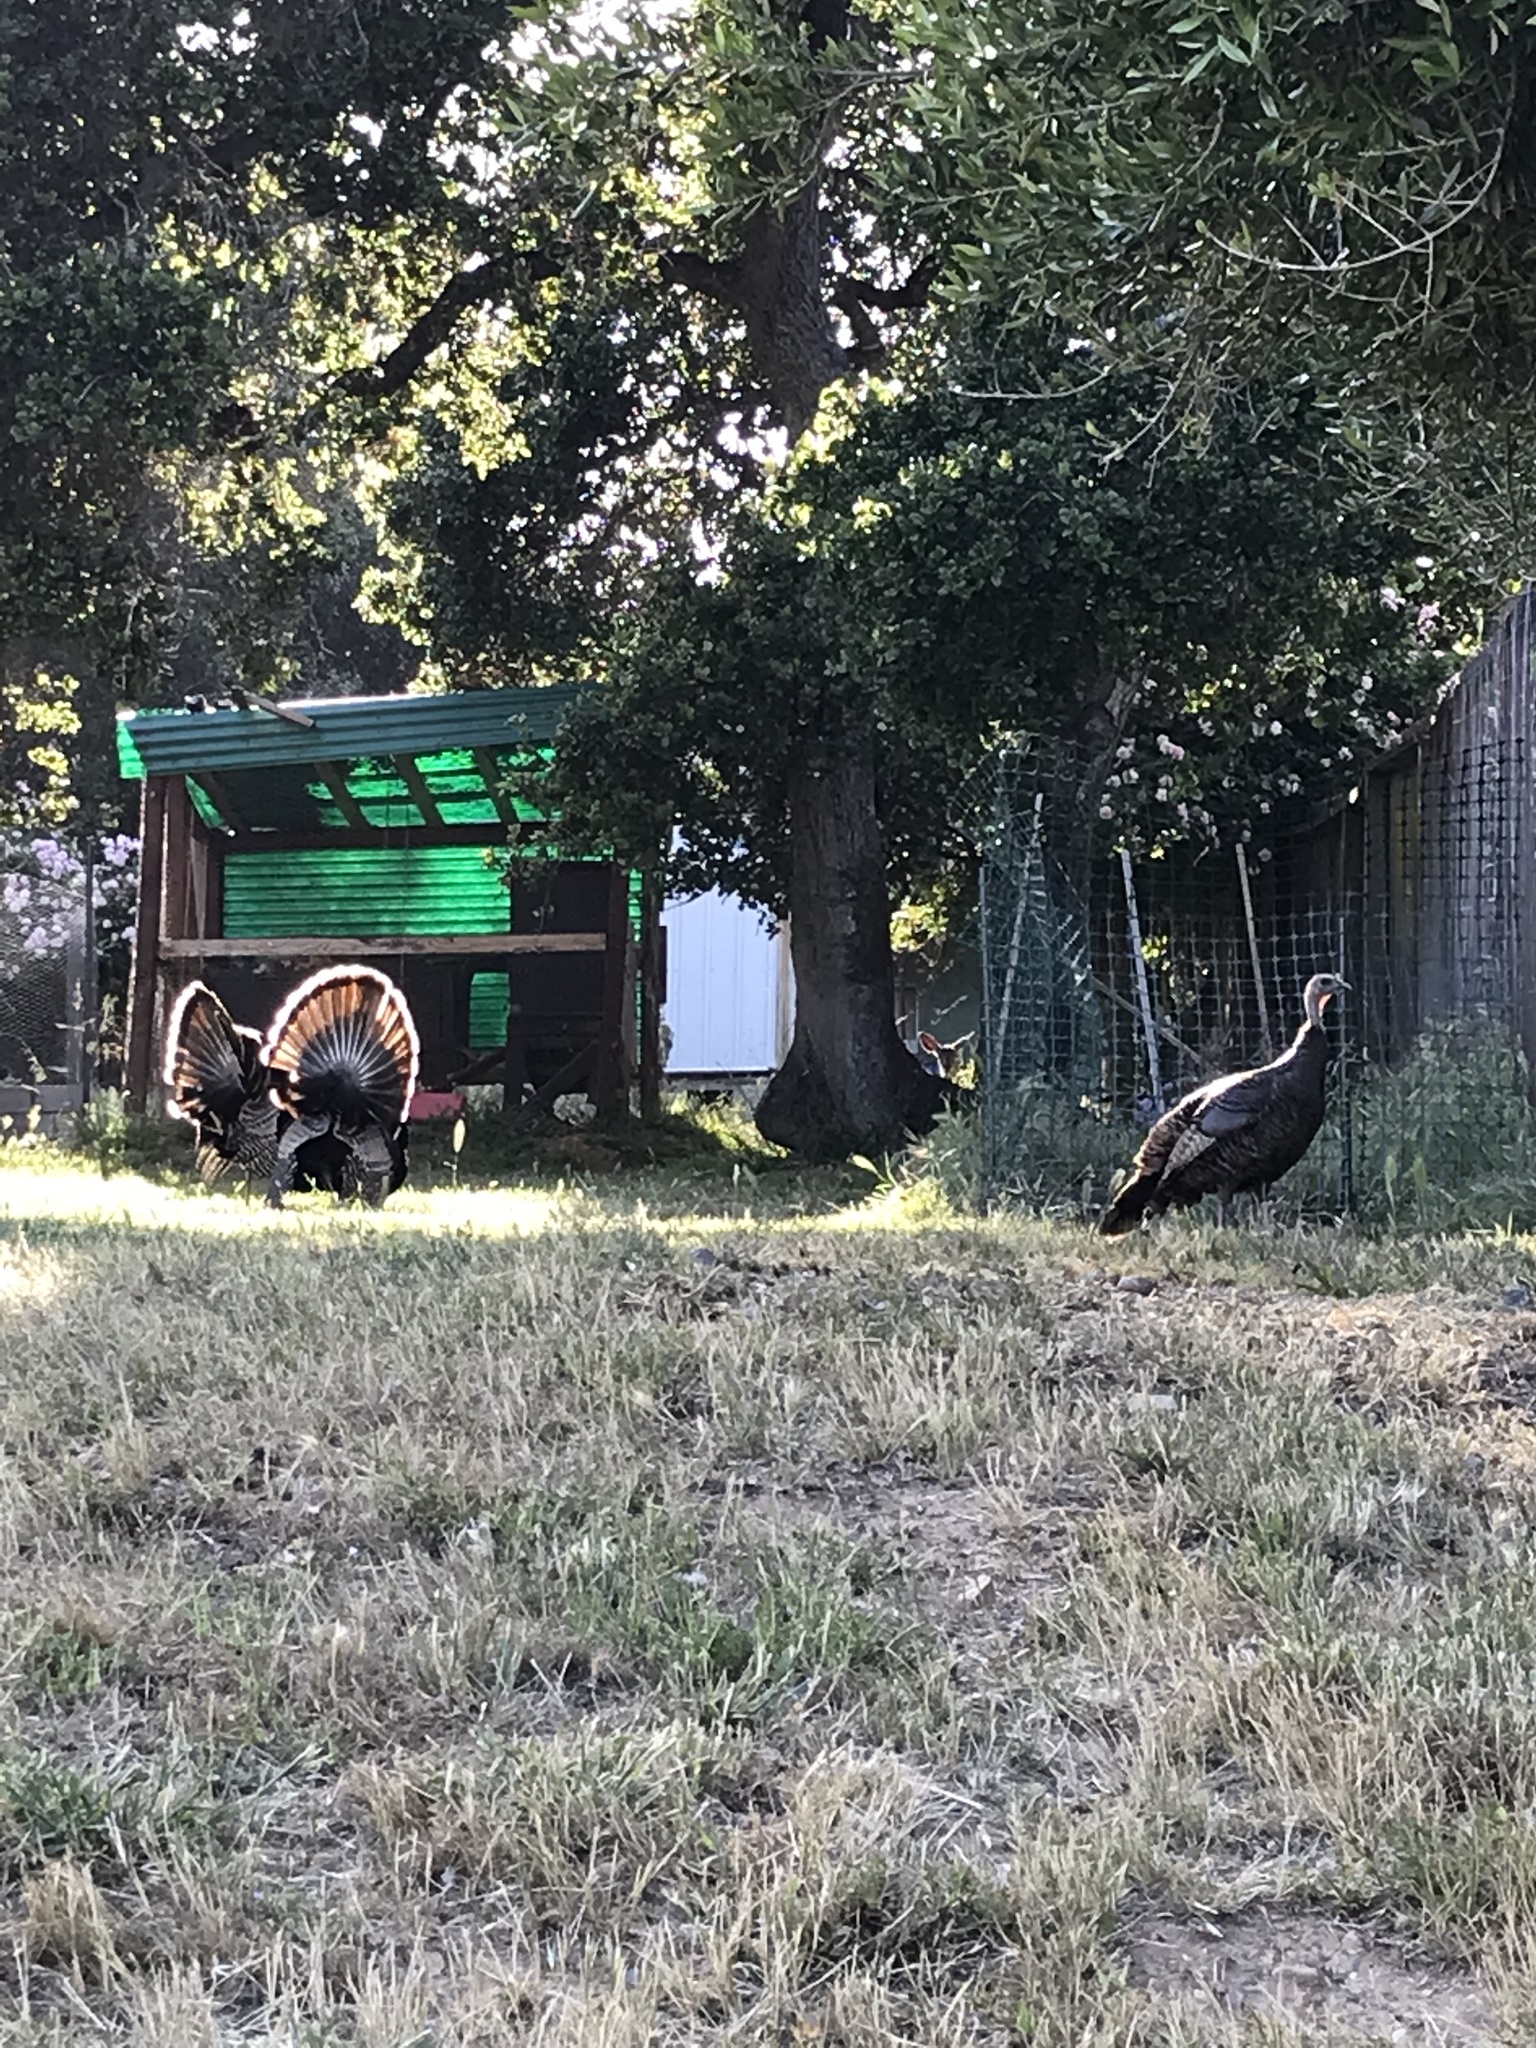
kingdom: Animalia
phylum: Chordata
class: Aves
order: Galliformes
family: Phasianidae
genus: Meleagris
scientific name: Meleagris gallopavo
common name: Wild turkey
